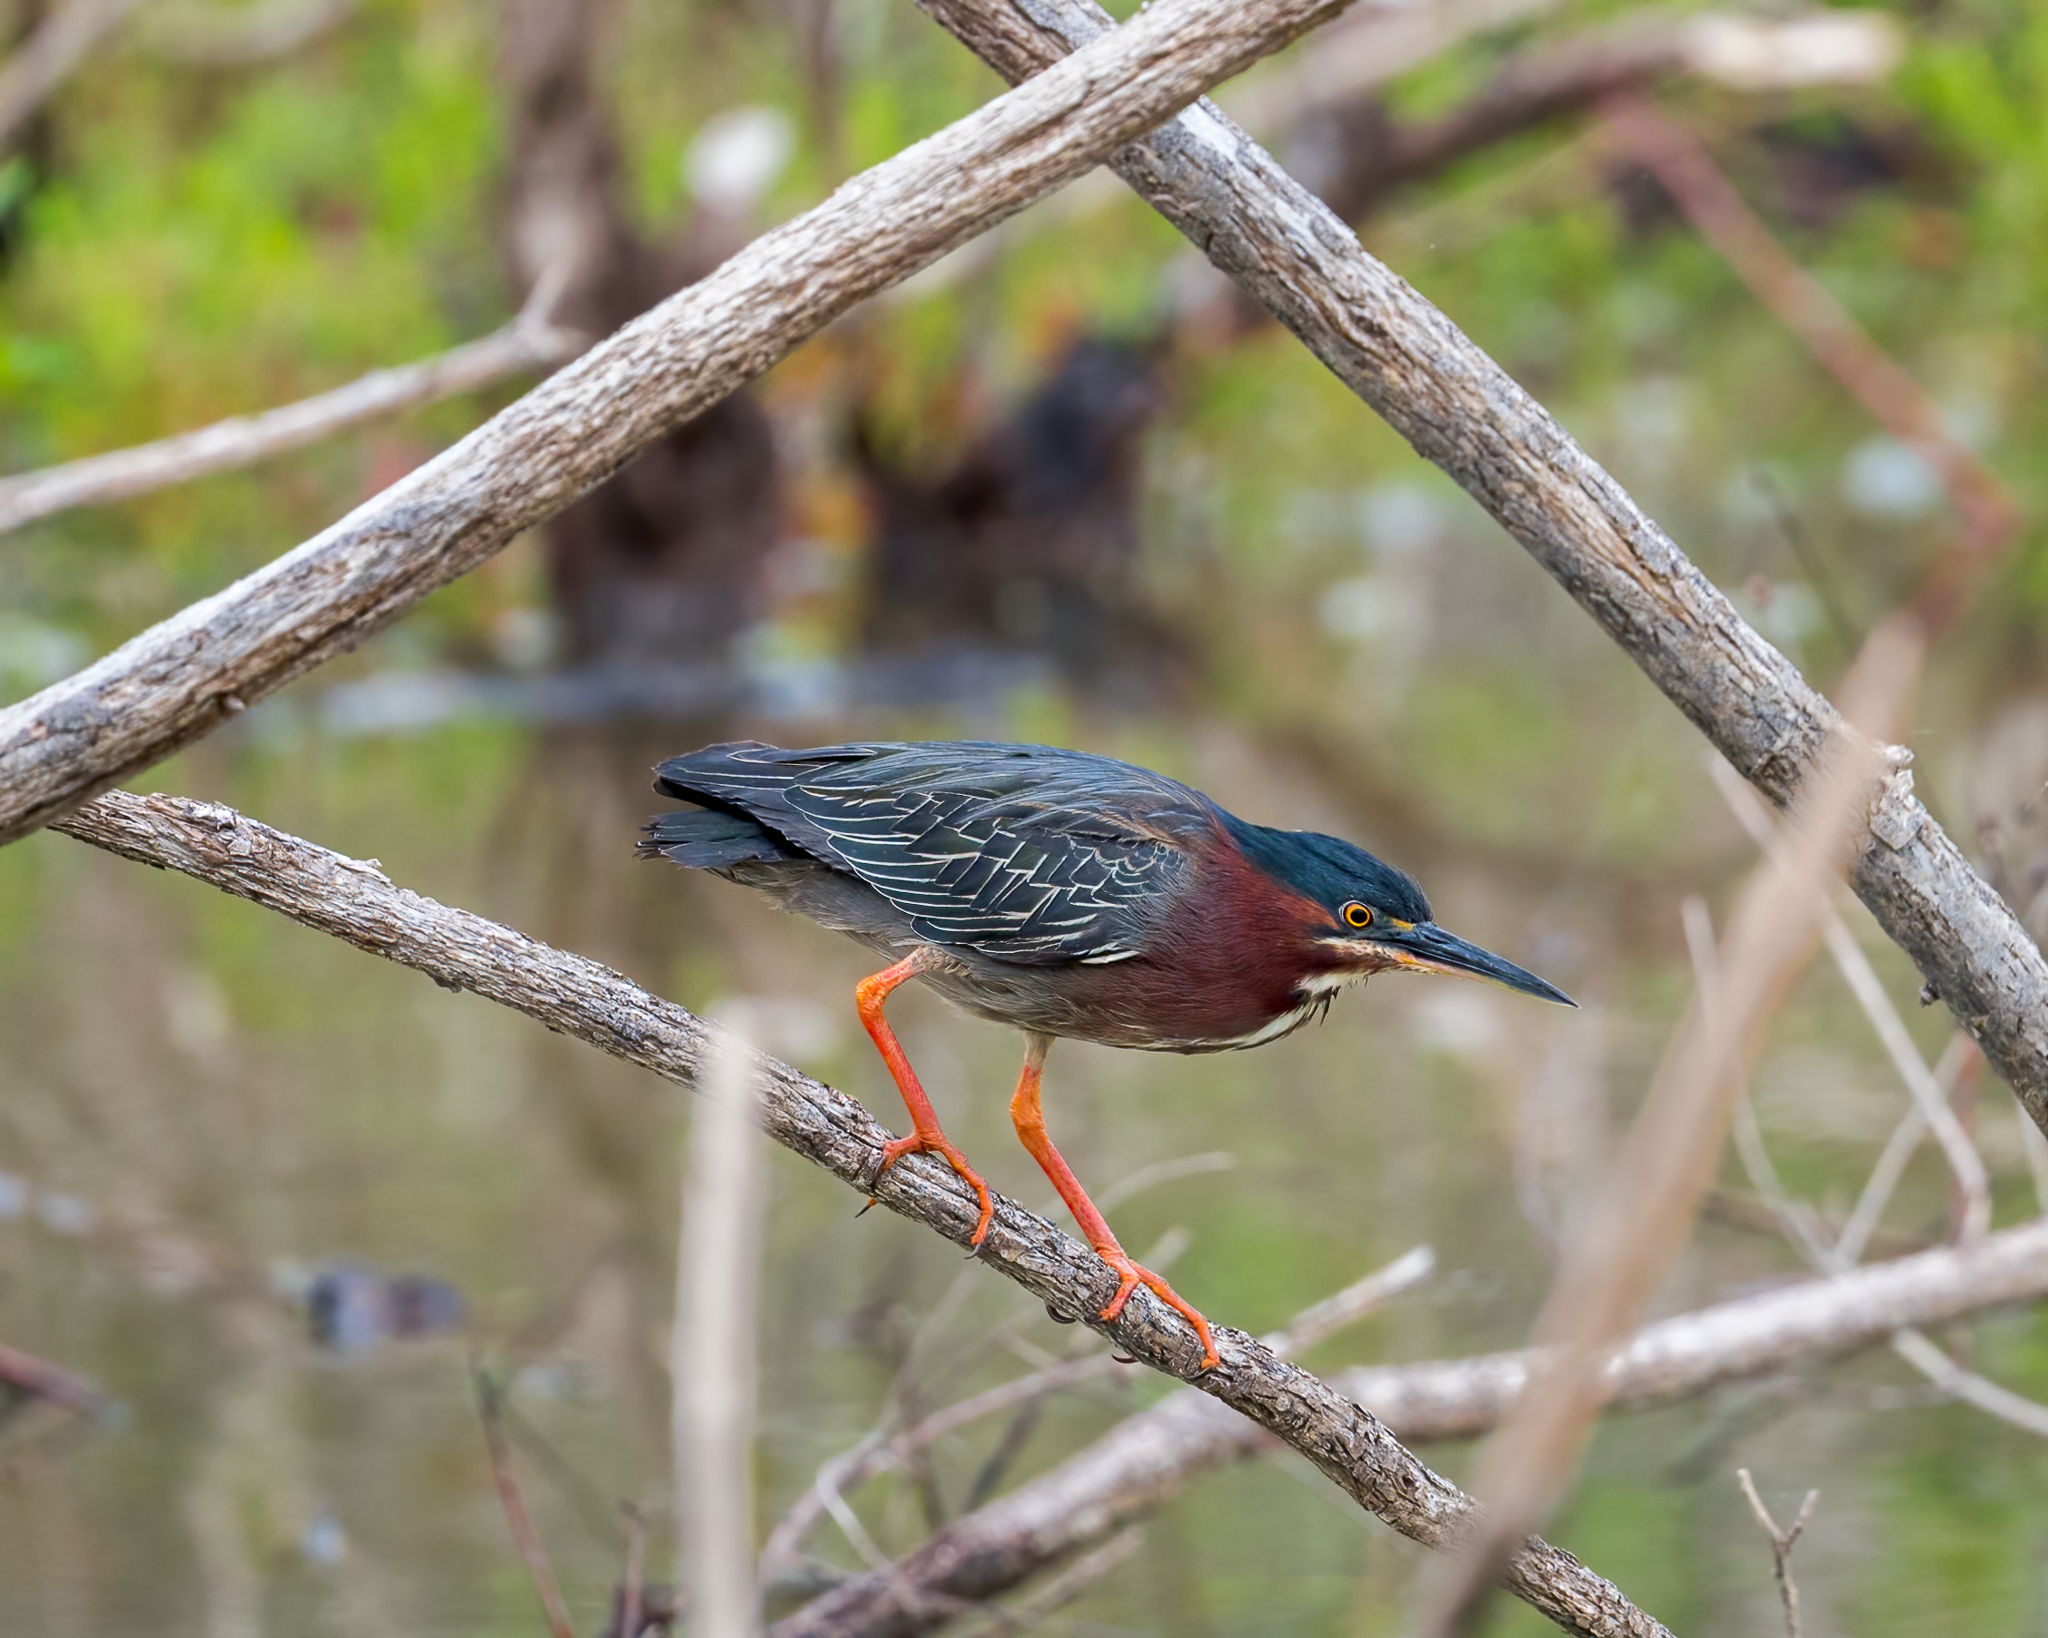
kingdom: Animalia
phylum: Chordata
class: Aves
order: Pelecaniformes
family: Ardeidae
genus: Butorides
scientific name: Butorides virescens
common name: Green heron
